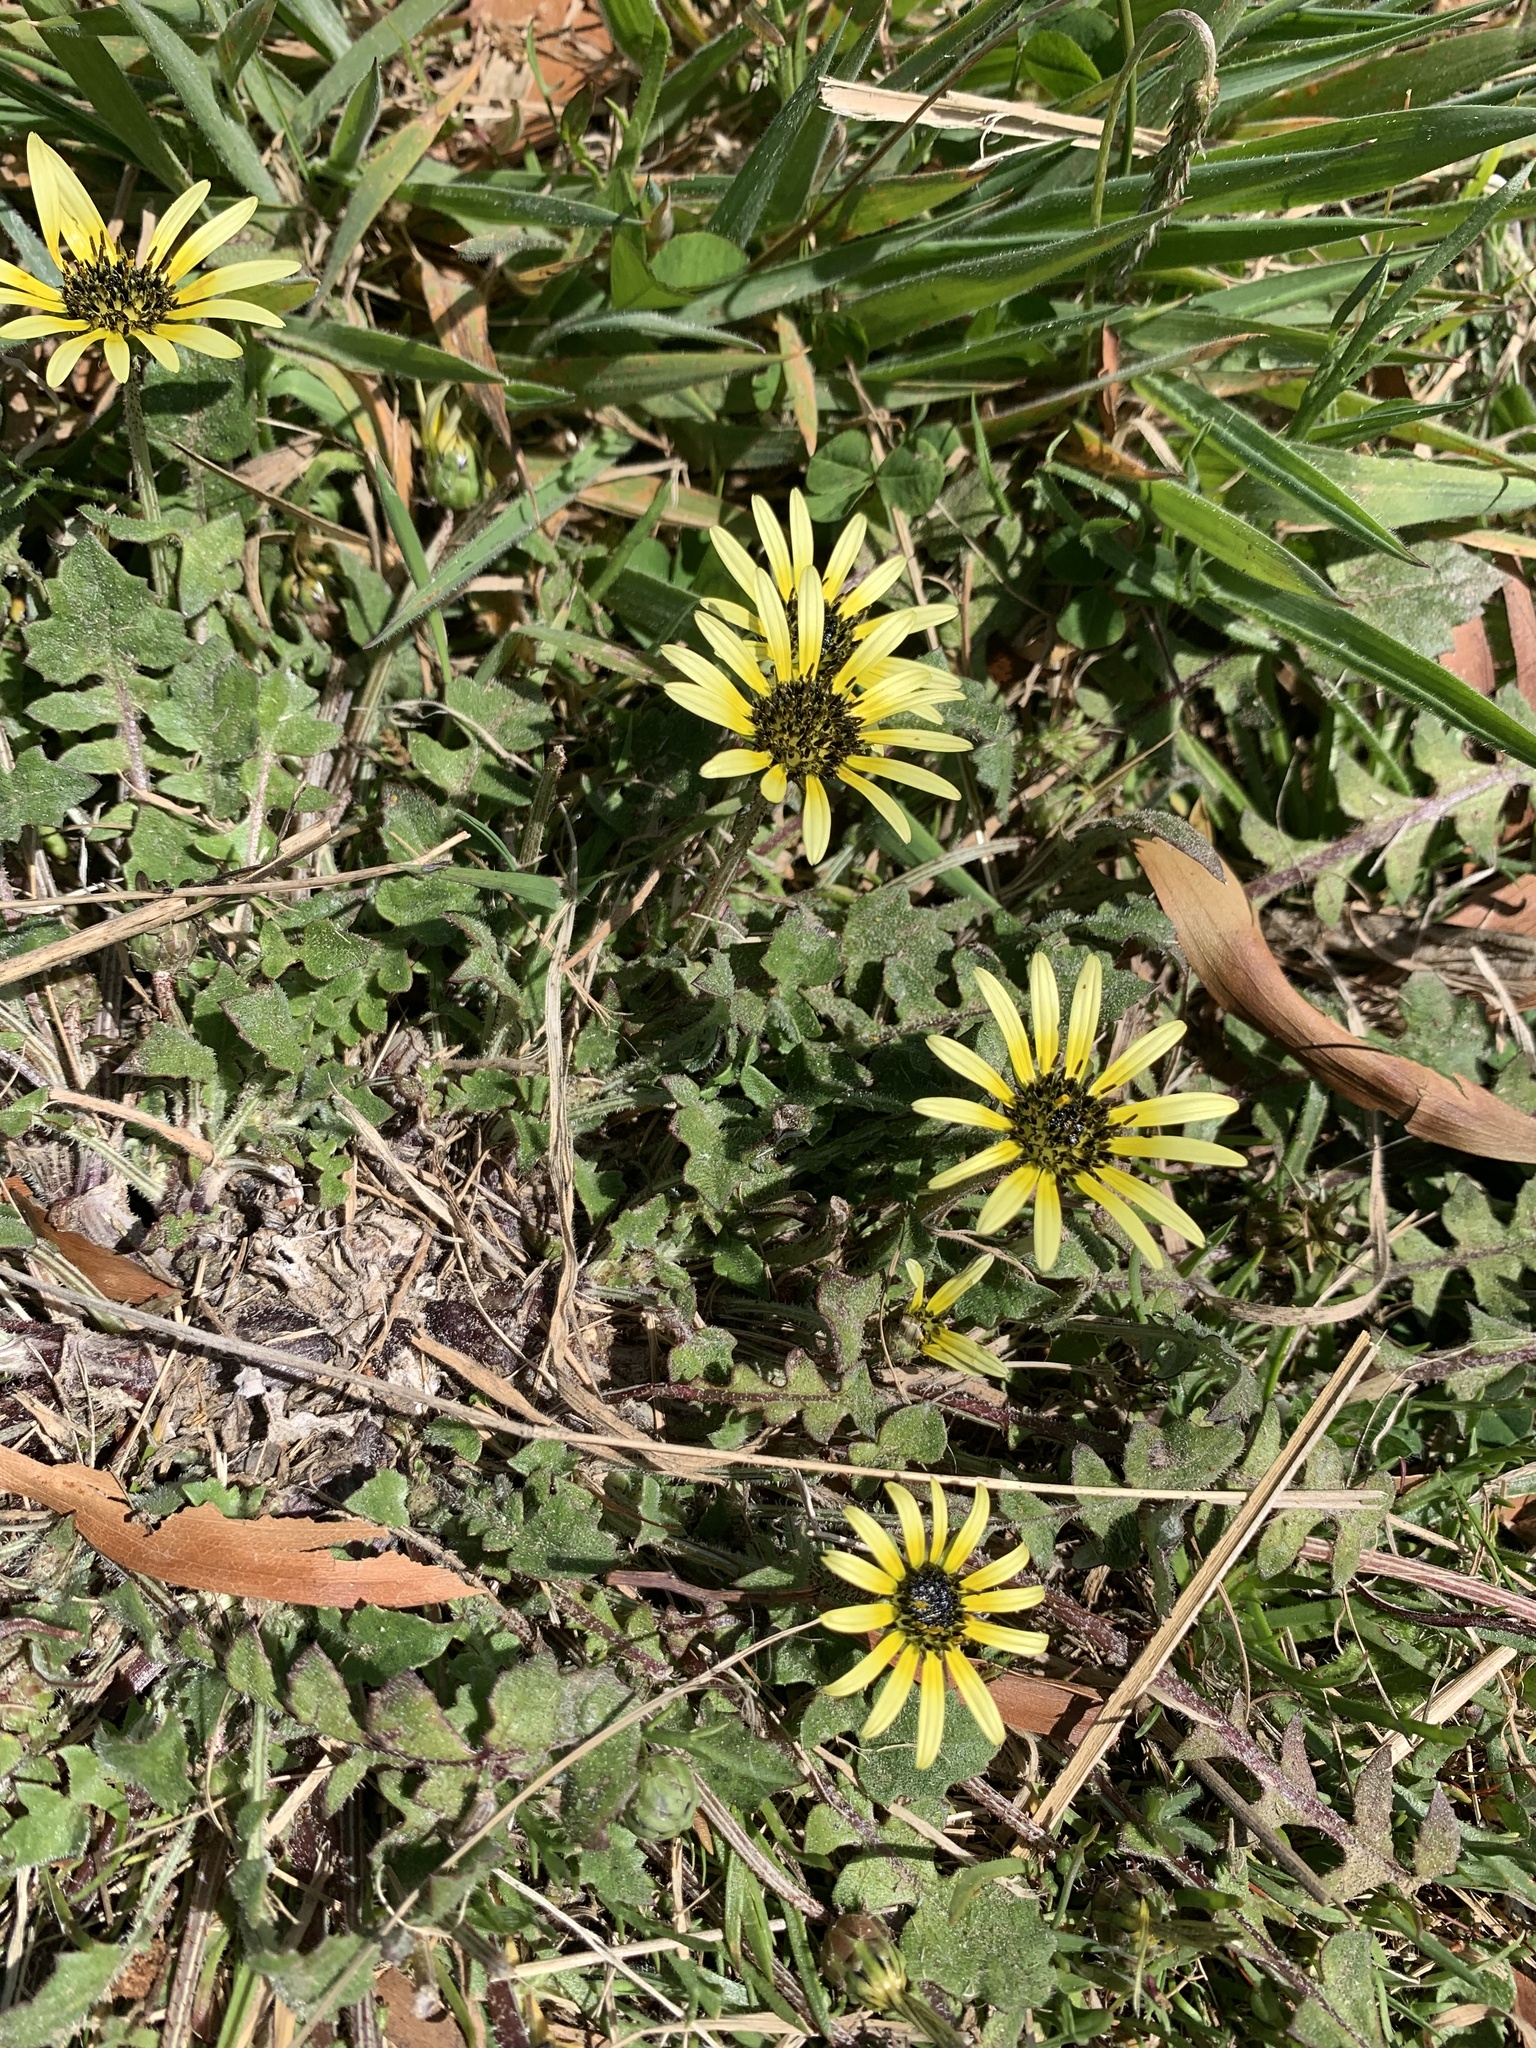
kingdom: Plantae
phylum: Tracheophyta
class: Magnoliopsida
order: Asterales
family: Asteraceae
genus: Arctotheca
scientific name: Arctotheca calendula
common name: Capeweed
